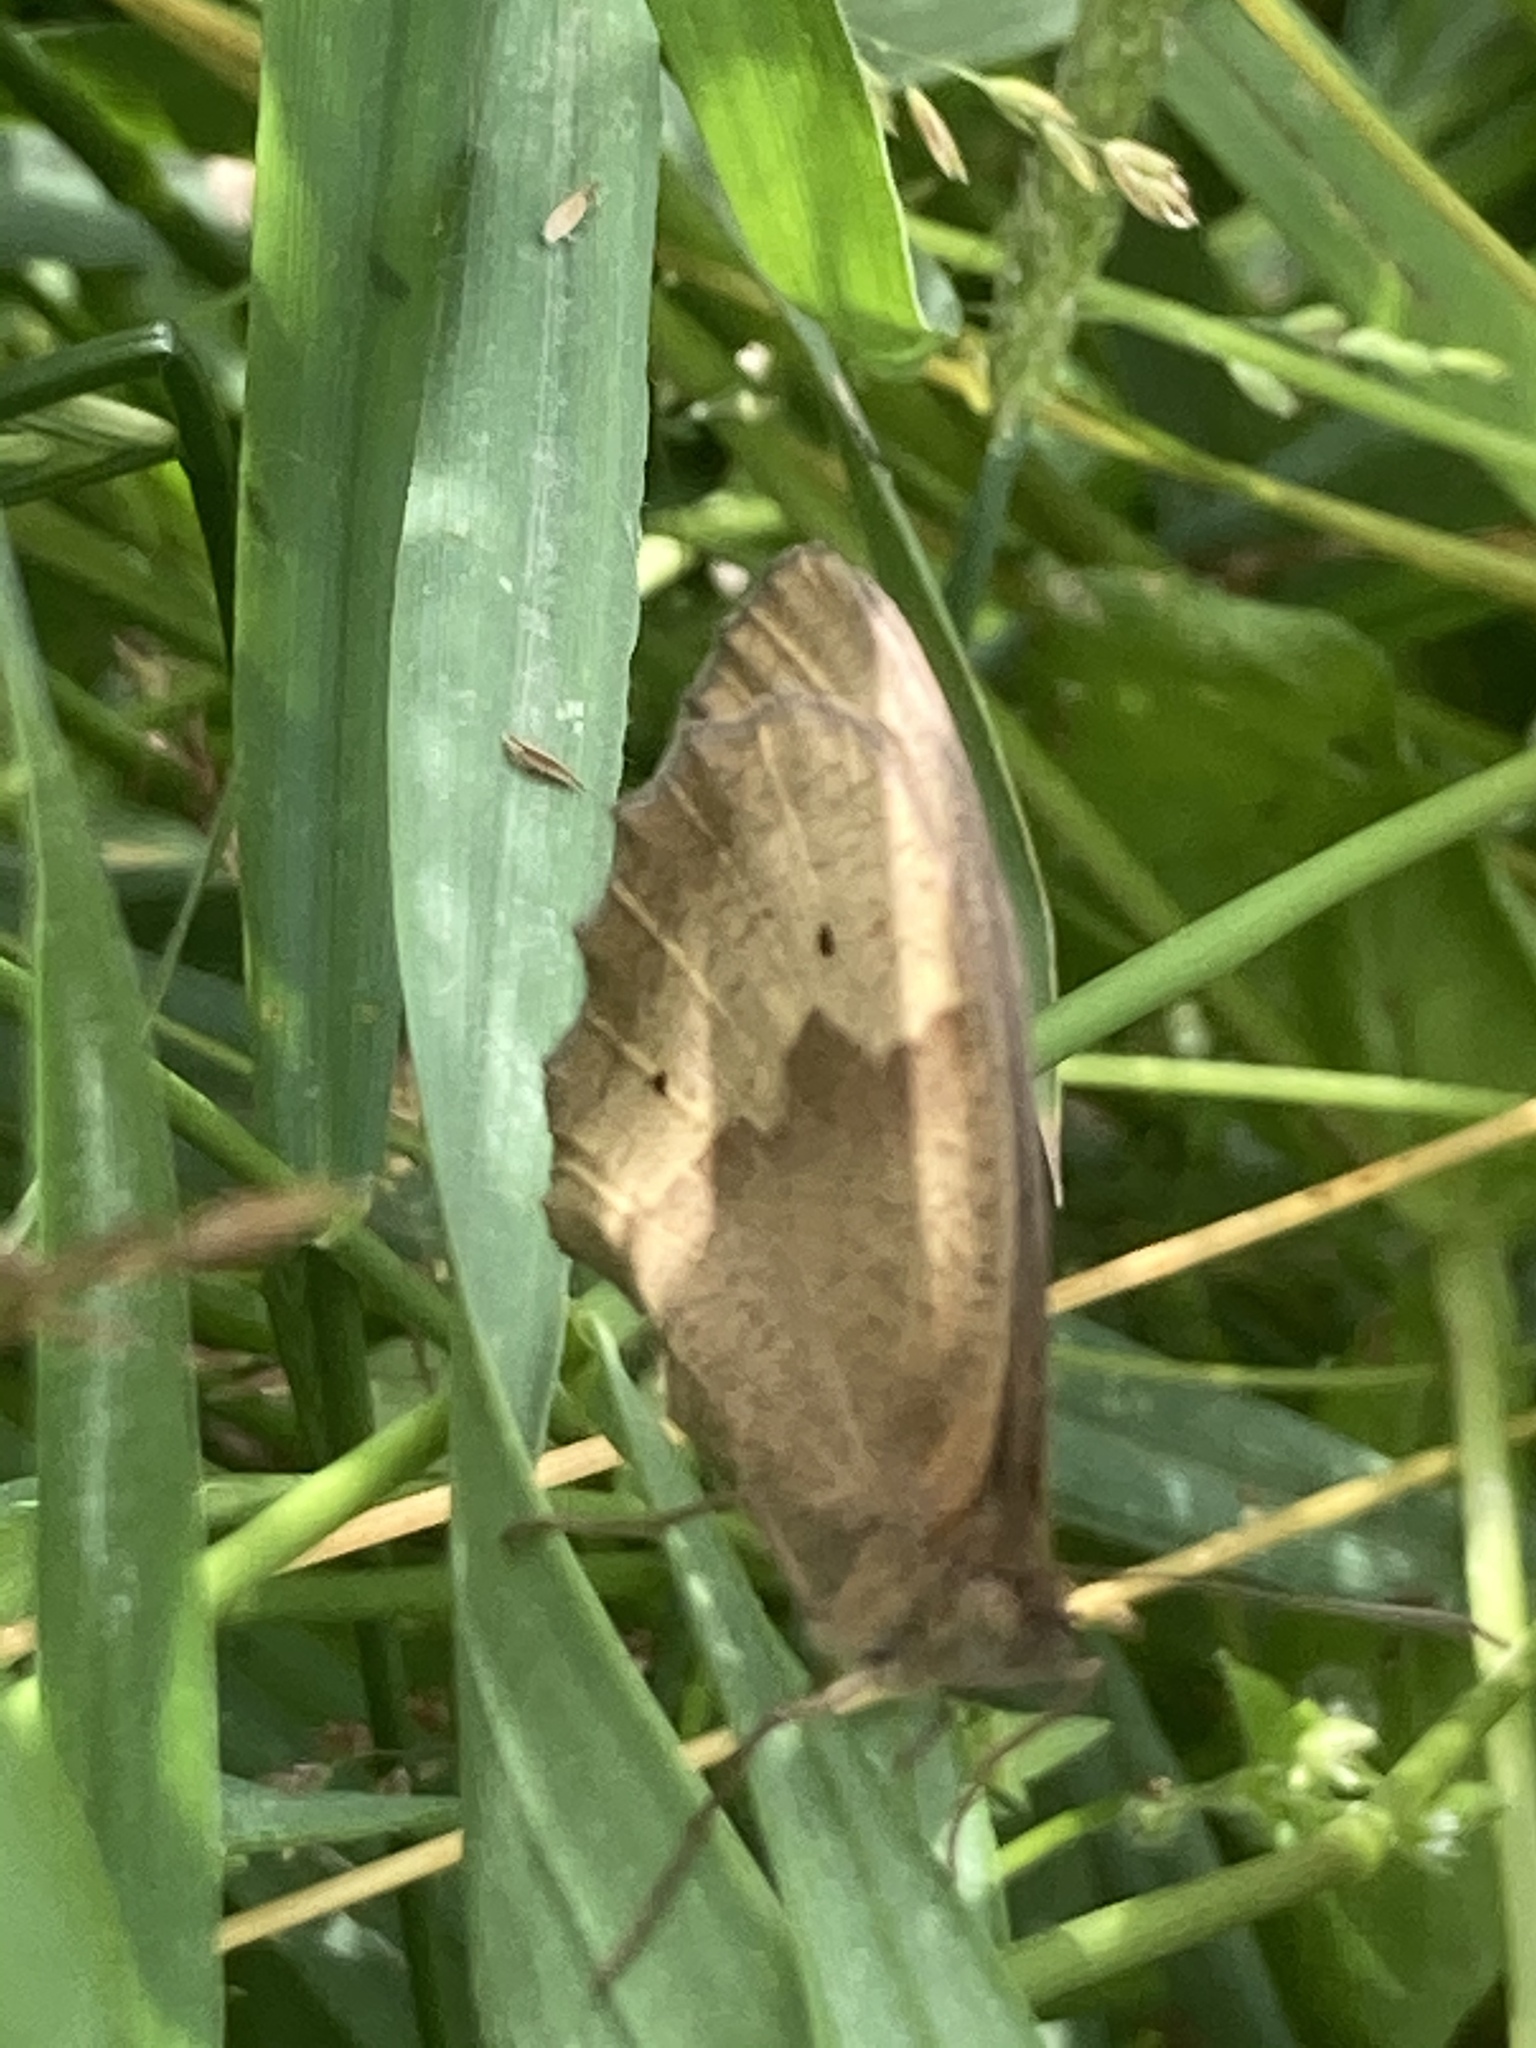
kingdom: Animalia
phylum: Arthropoda
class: Insecta
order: Lepidoptera
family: Nymphalidae
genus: Maniola
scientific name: Maniola jurtina
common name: Meadow brown
